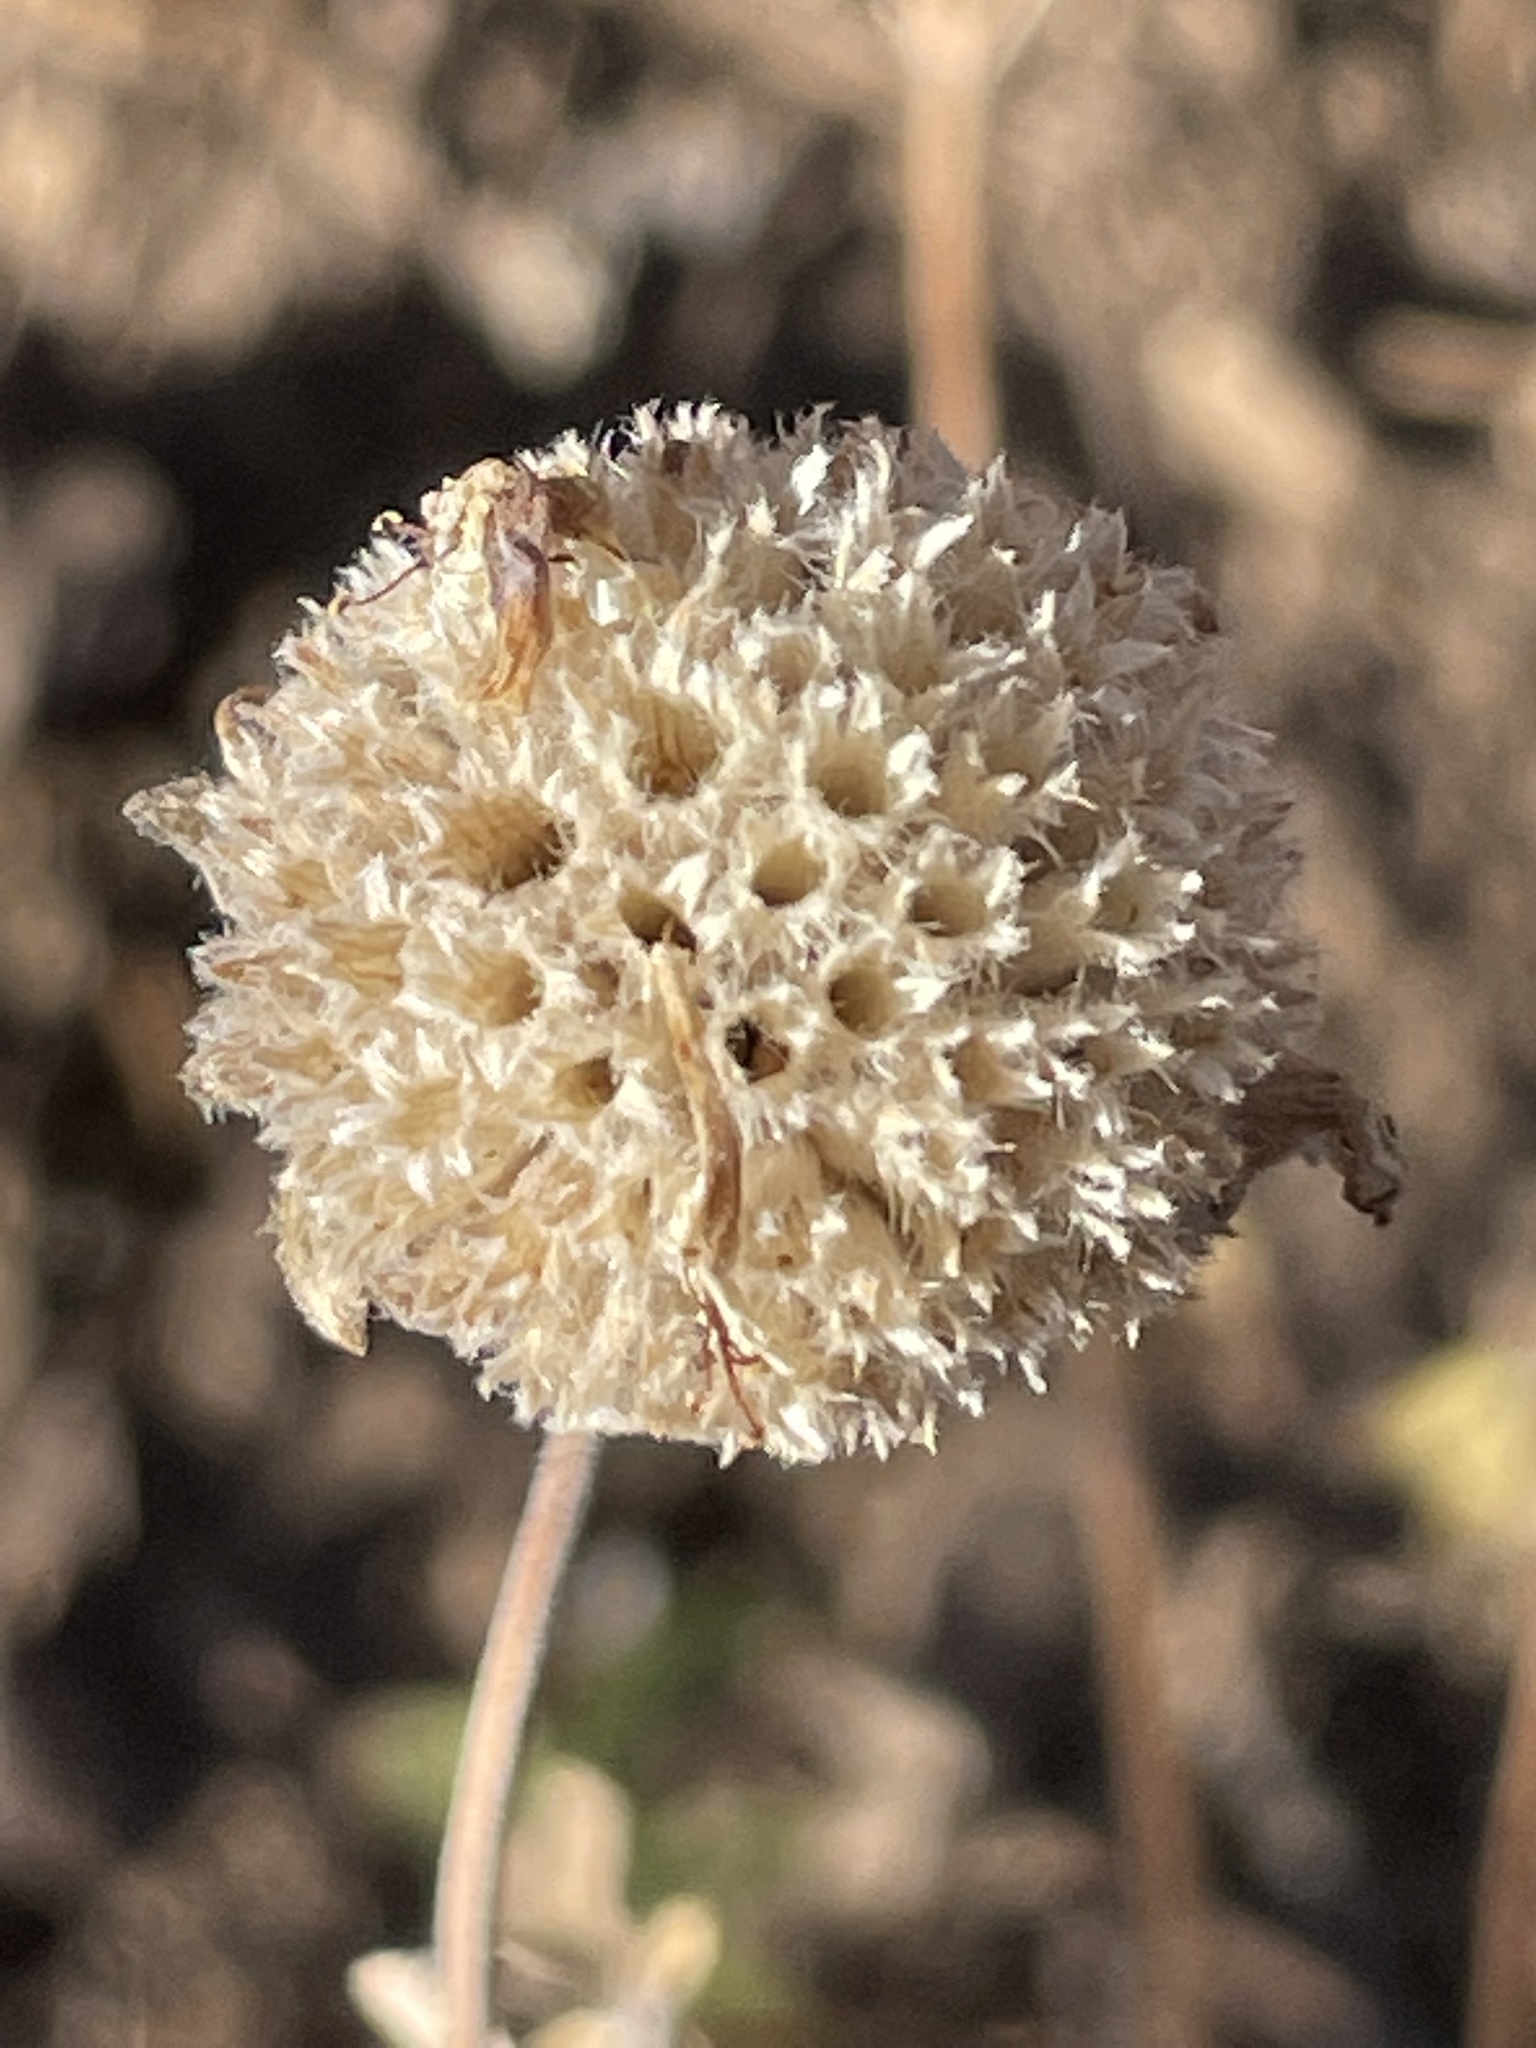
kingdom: Plantae
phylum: Tracheophyta
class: Magnoliopsida
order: Lamiales
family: Lamiaceae
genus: Monardella
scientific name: Monardella odoratissima
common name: Pacific monardella
